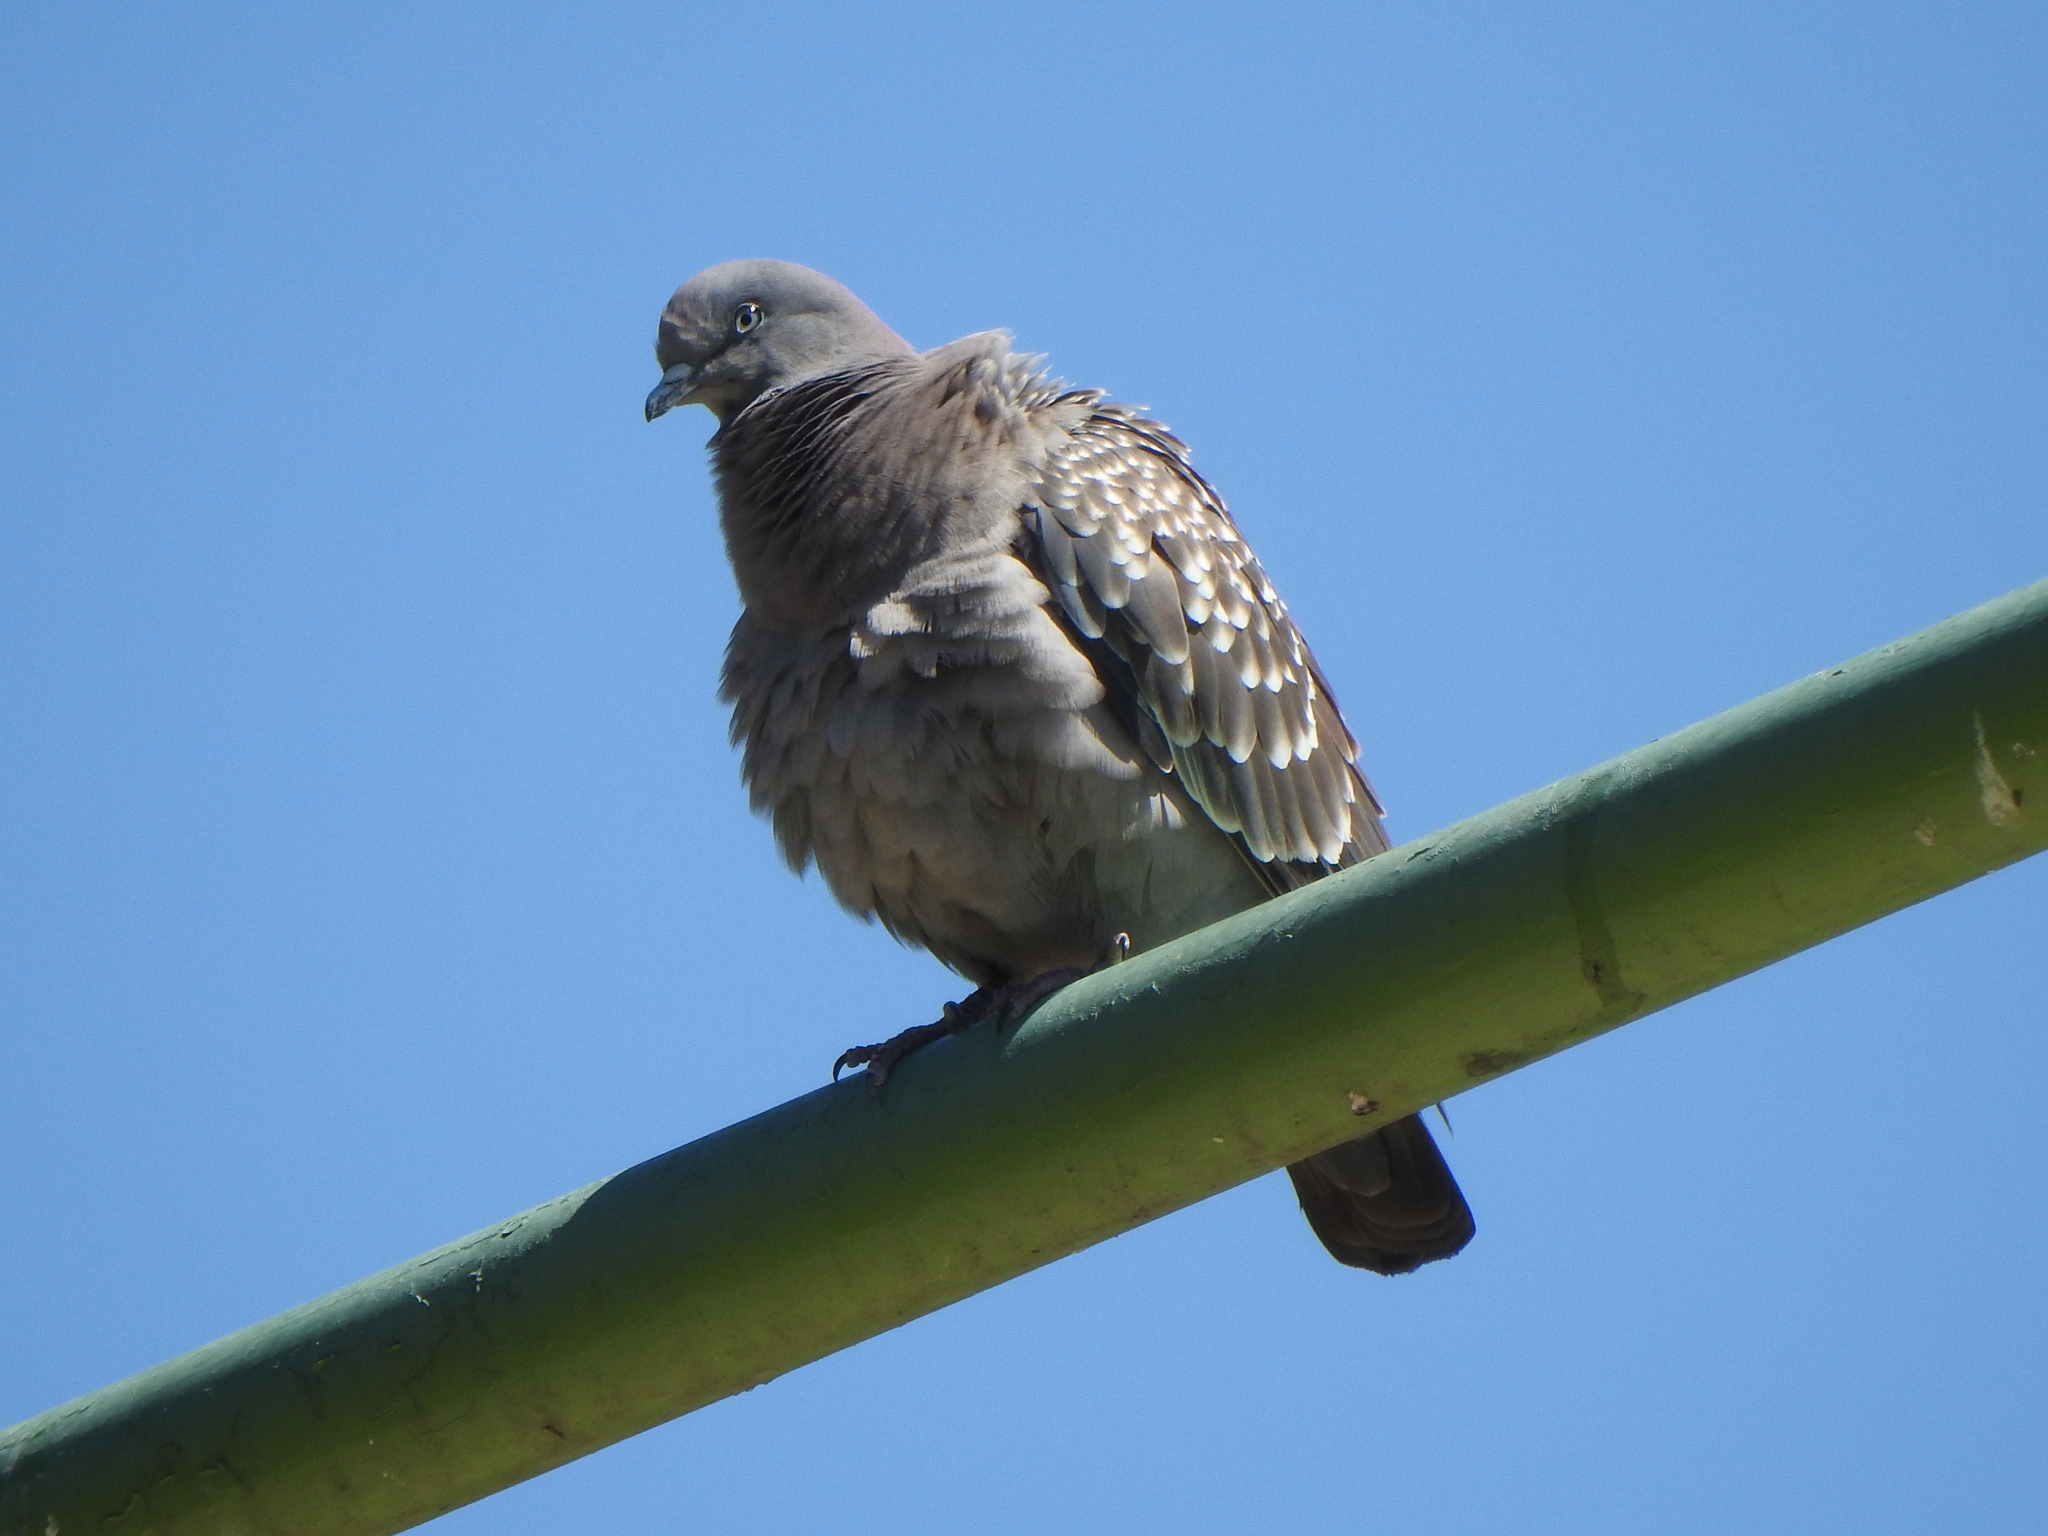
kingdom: Animalia
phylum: Chordata
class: Aves
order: Columbiformes
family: Columbidae
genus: Patagioenas
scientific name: Patagioenas maculosa
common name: Spot-winged pigeon
